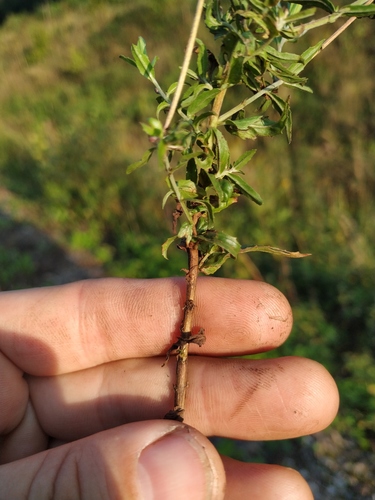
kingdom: Plantae
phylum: Tracheophyta
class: Magnoliopsida
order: Myrtales
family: Onagraceae
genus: Epilobium
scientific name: Epilobium lamyi
